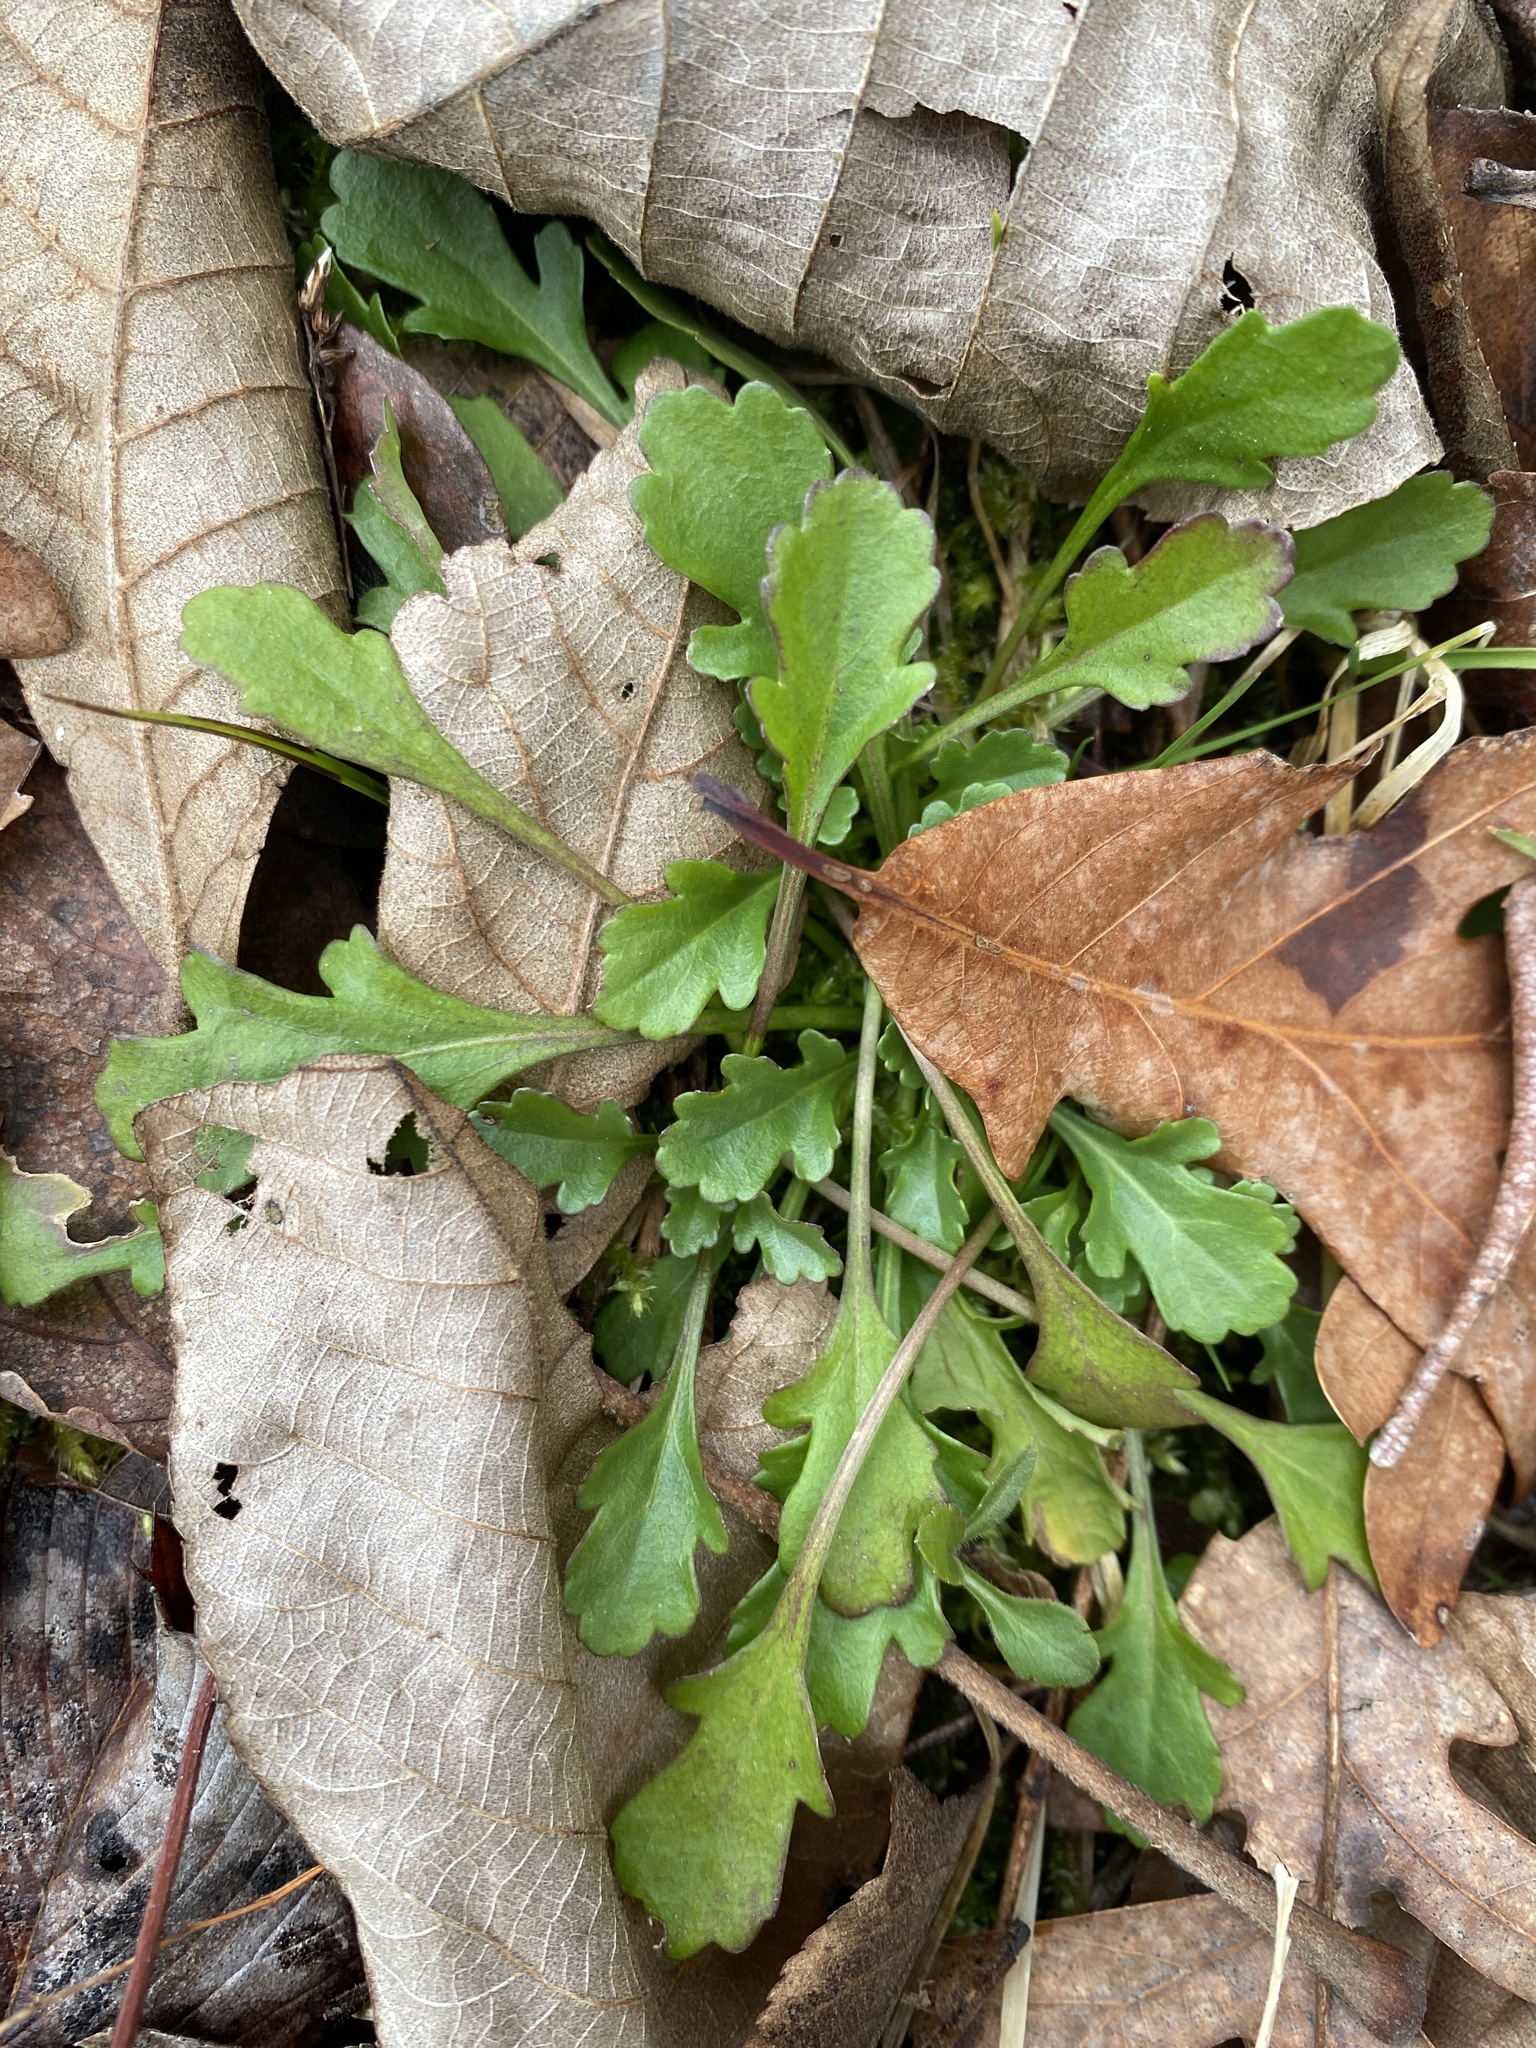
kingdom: Plantae
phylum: Tracheophyta
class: Magnoliopsida
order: Asterales
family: Asteraceae
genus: Leucanthemum
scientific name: Leucanthemum vulgare
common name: Oxeye daisy
